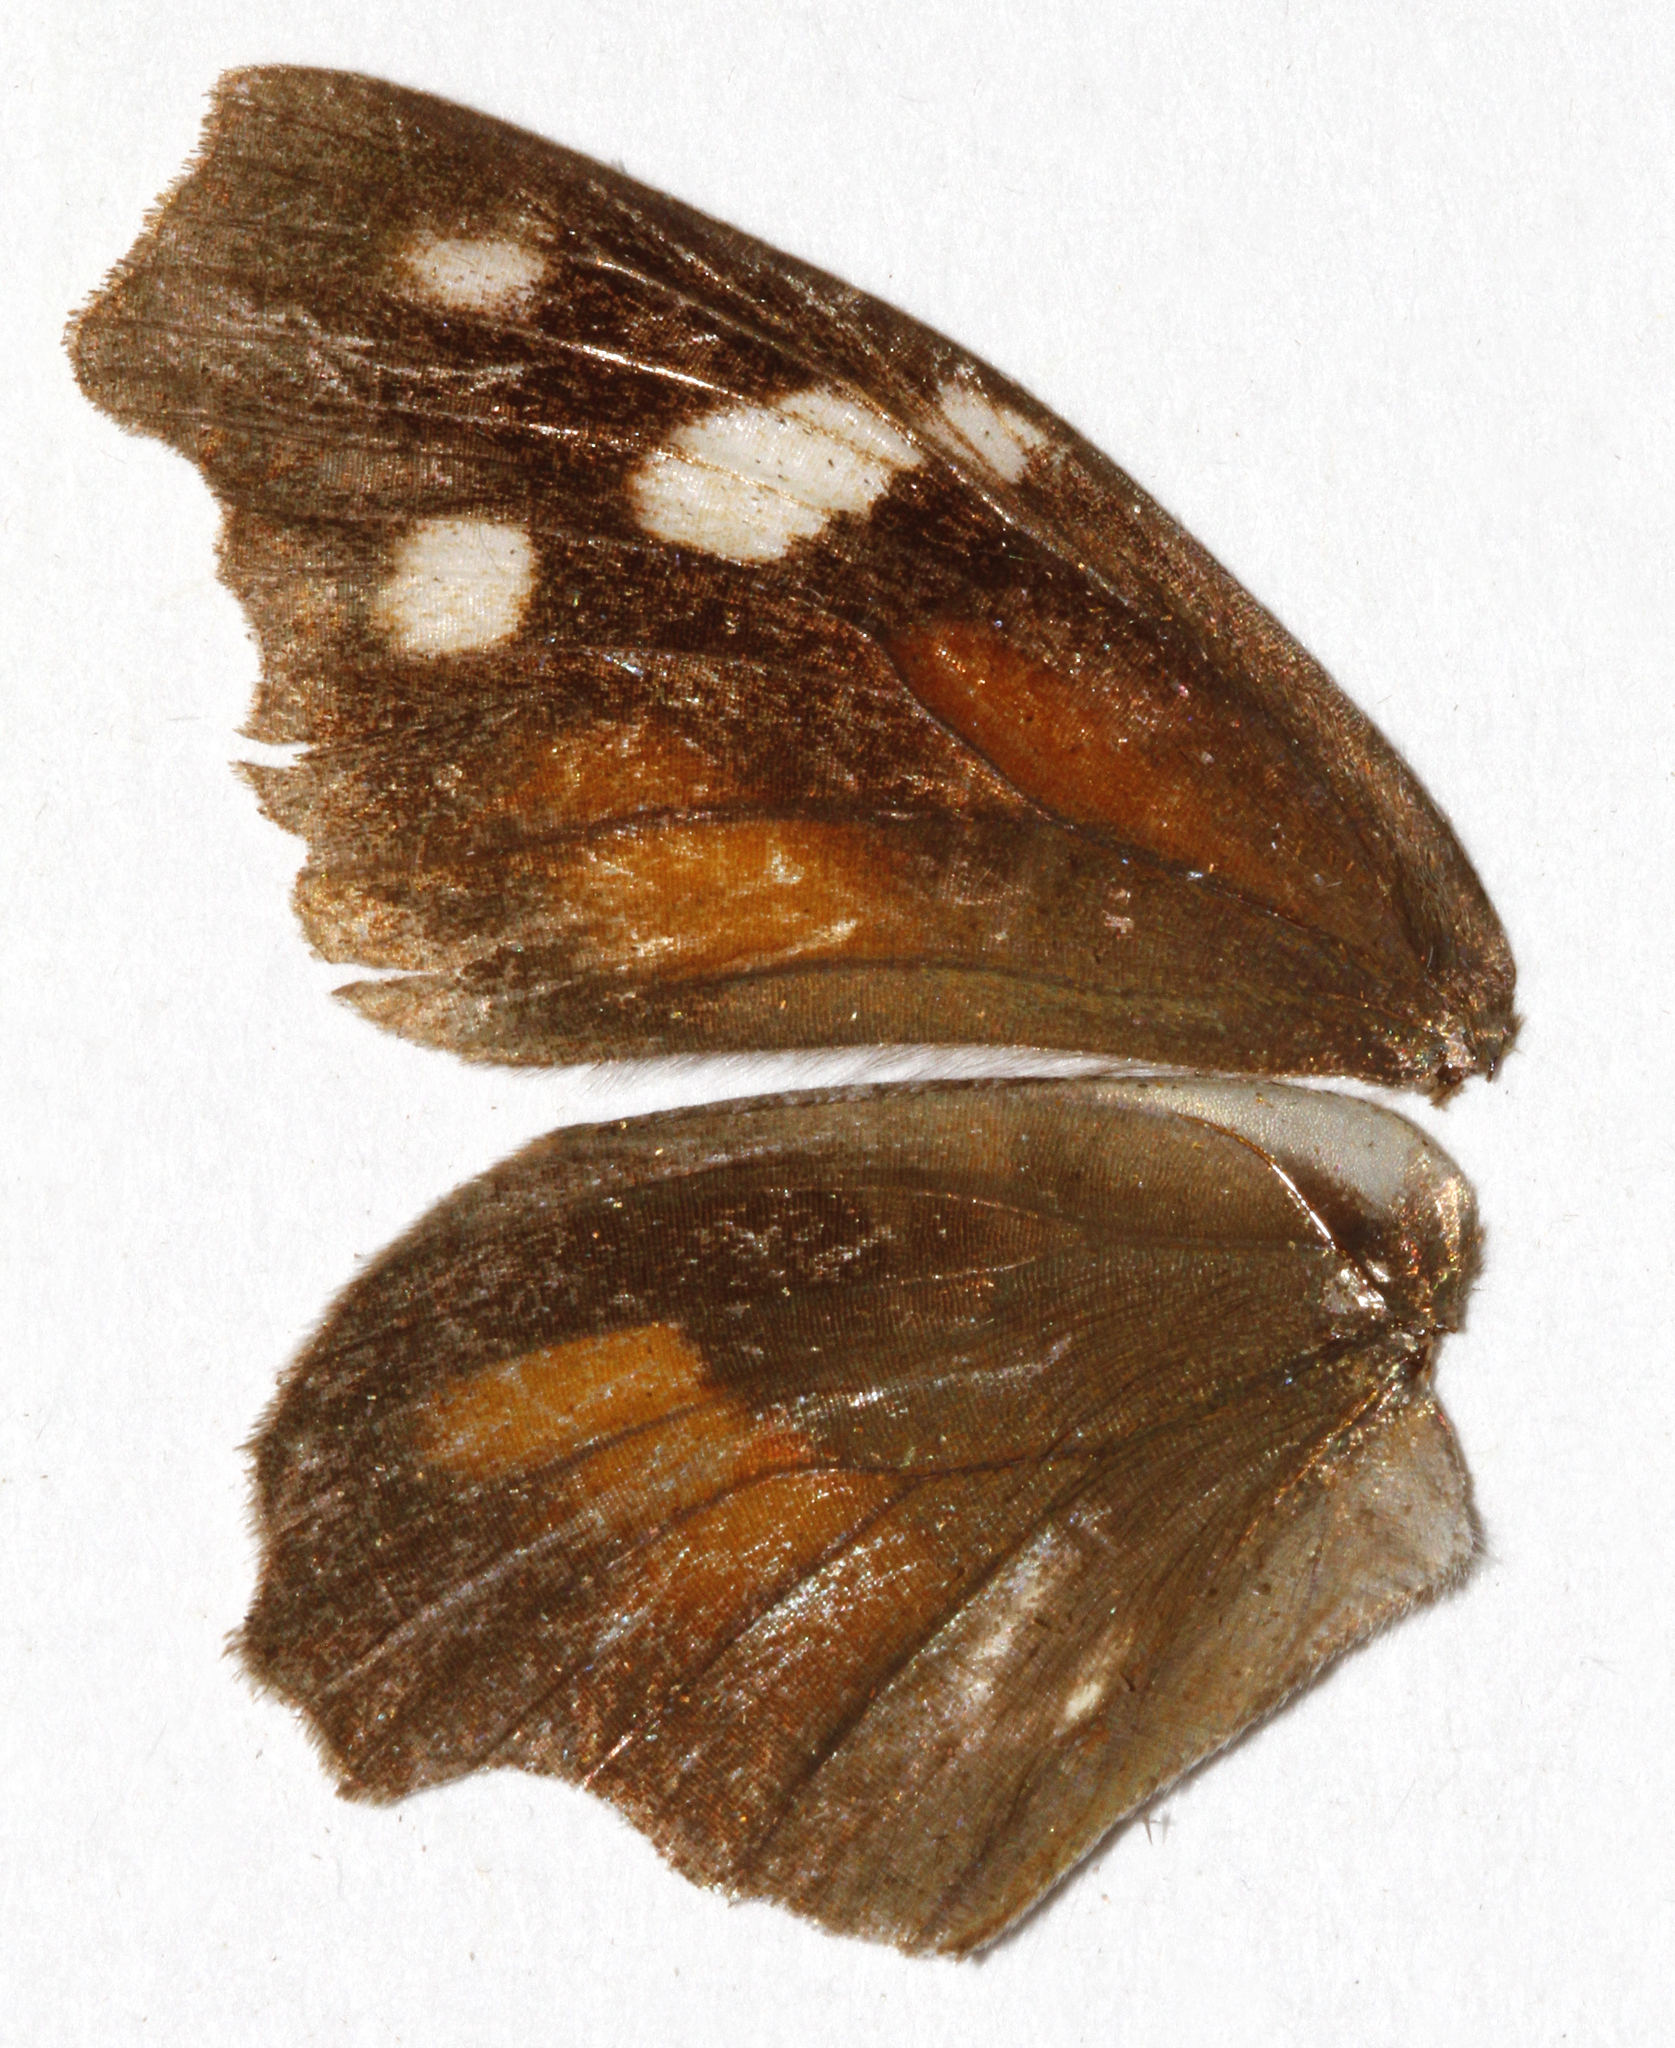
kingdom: Animalia
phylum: Arthropoda
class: Insecta
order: Lepidoptera
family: Nymphalidae
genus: Libytheana
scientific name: Libytheana carinenta
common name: American snout
